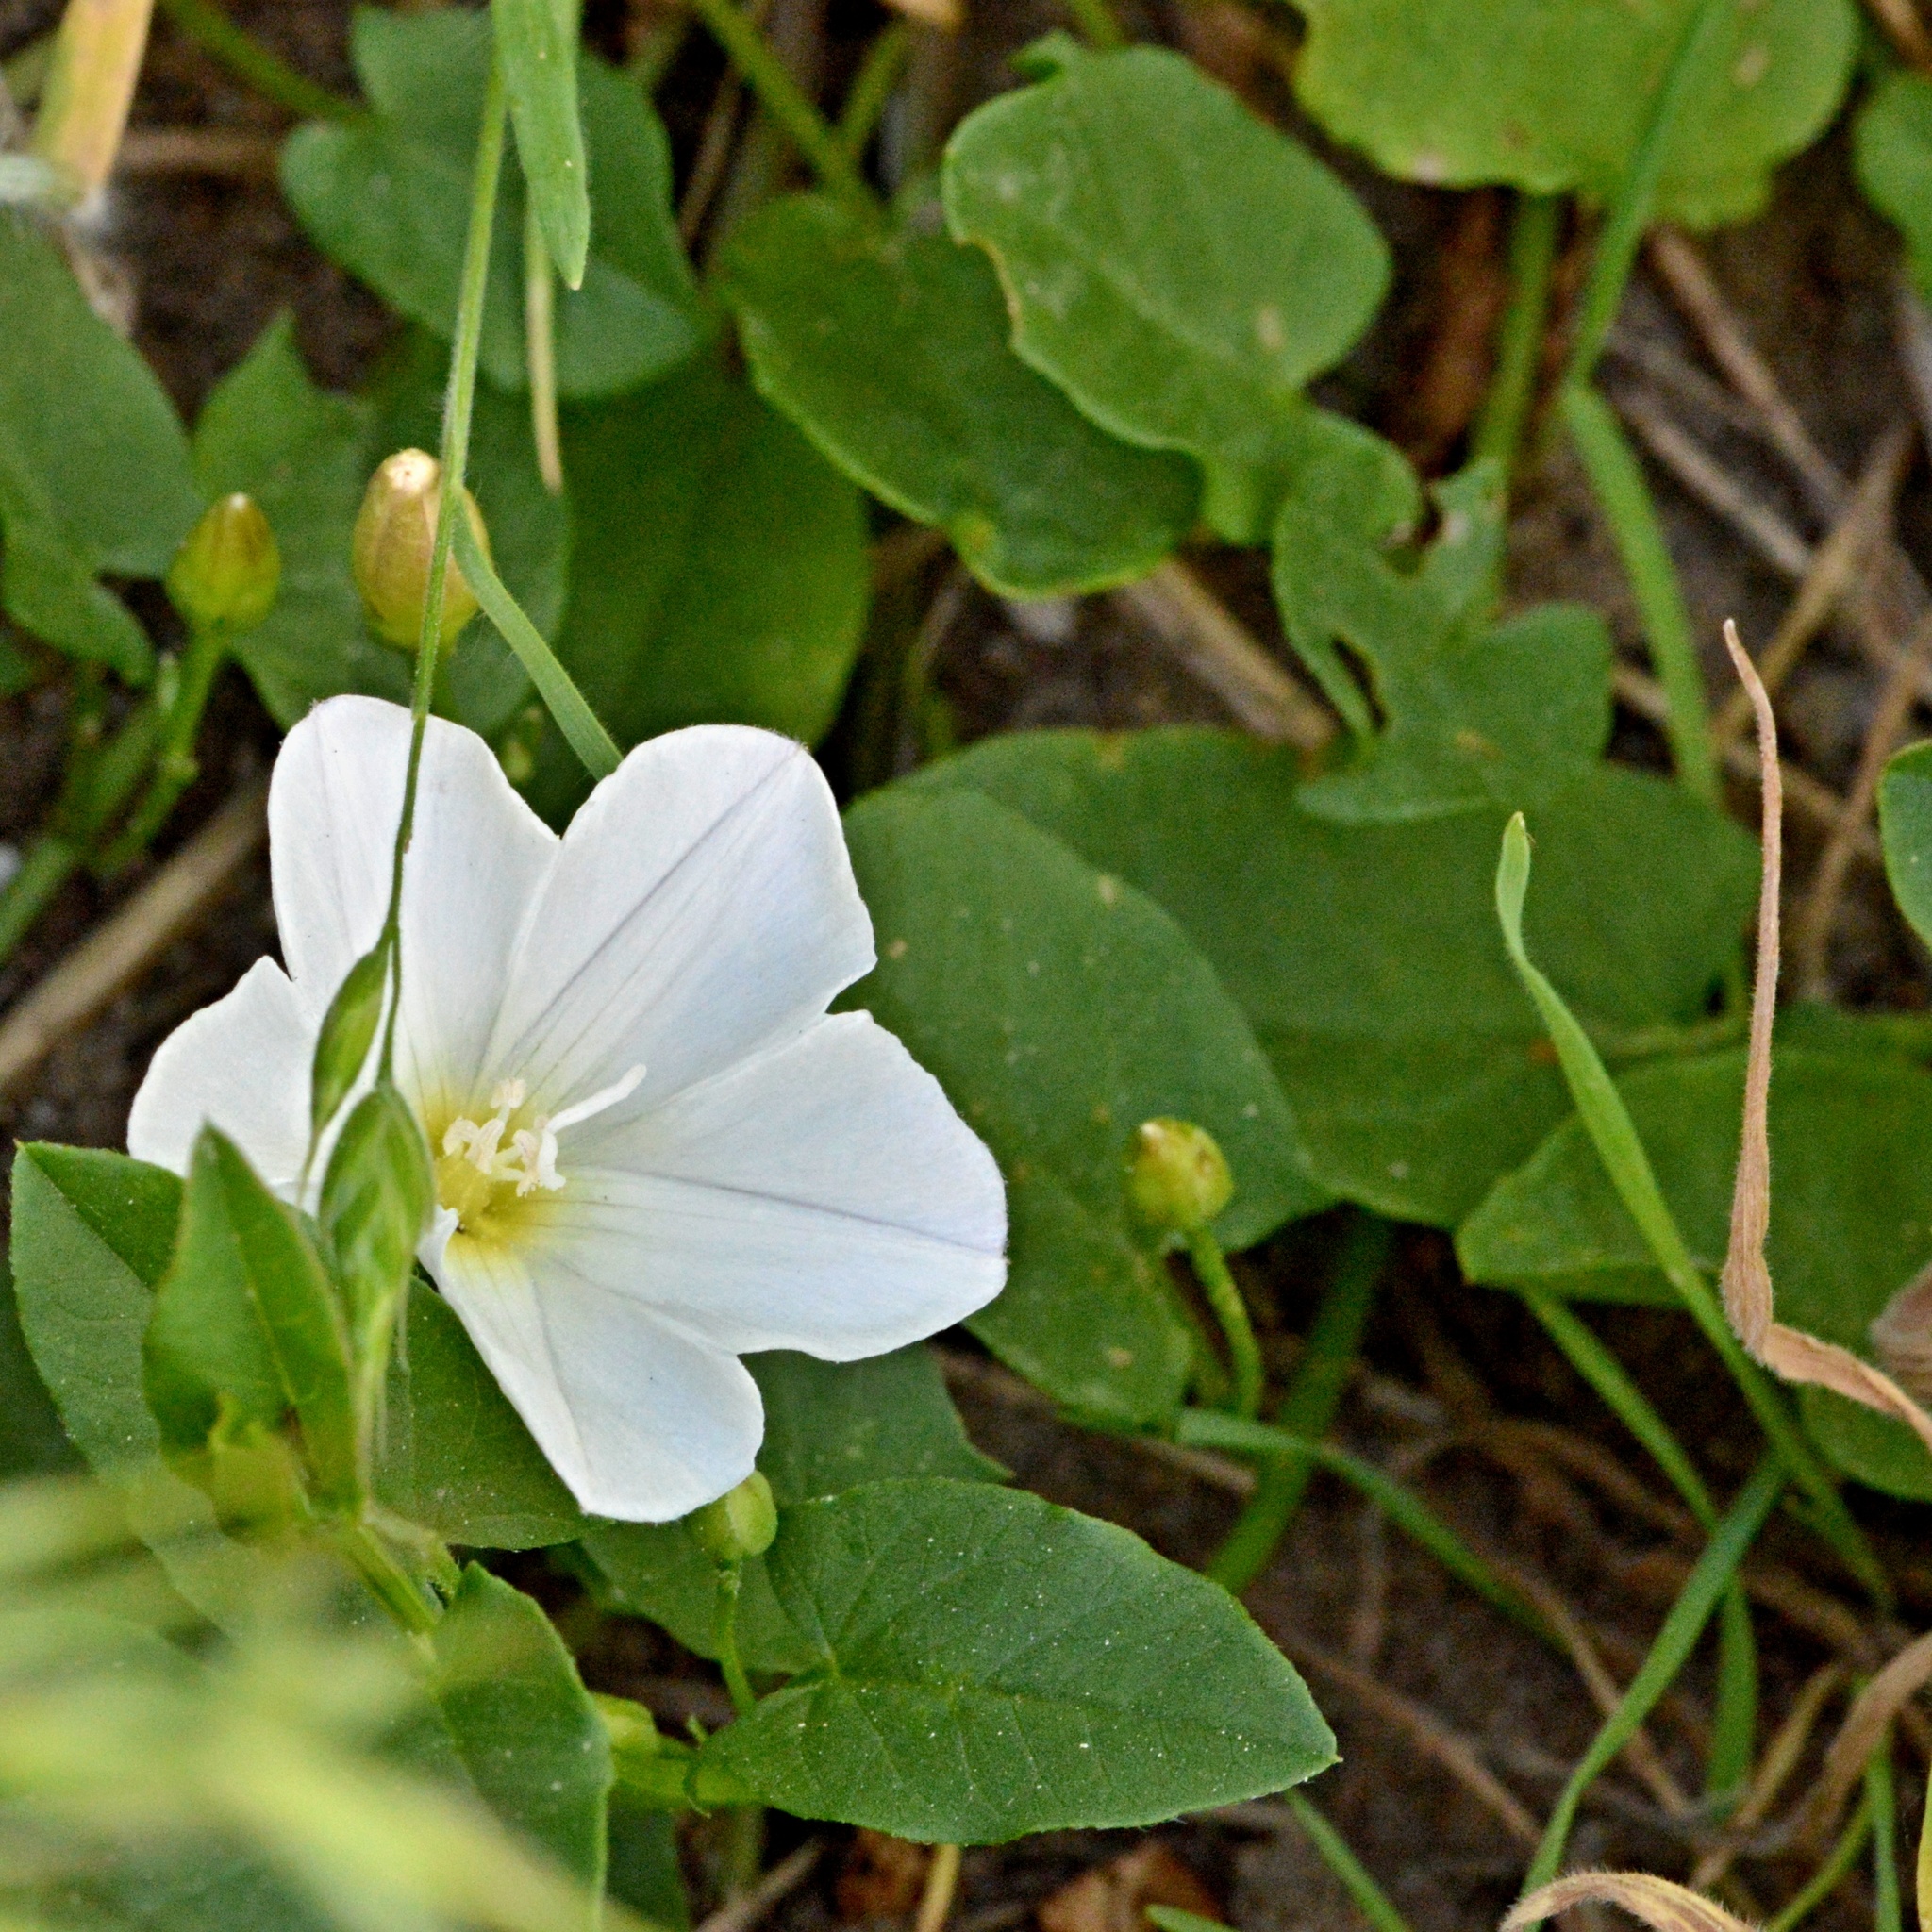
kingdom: Plantae
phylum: Tracheophyta
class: Magnoliopsida
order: Solanales
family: Convolvulaceae
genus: Convolvulus
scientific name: Convolvulus arvensis
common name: Field bindweed
